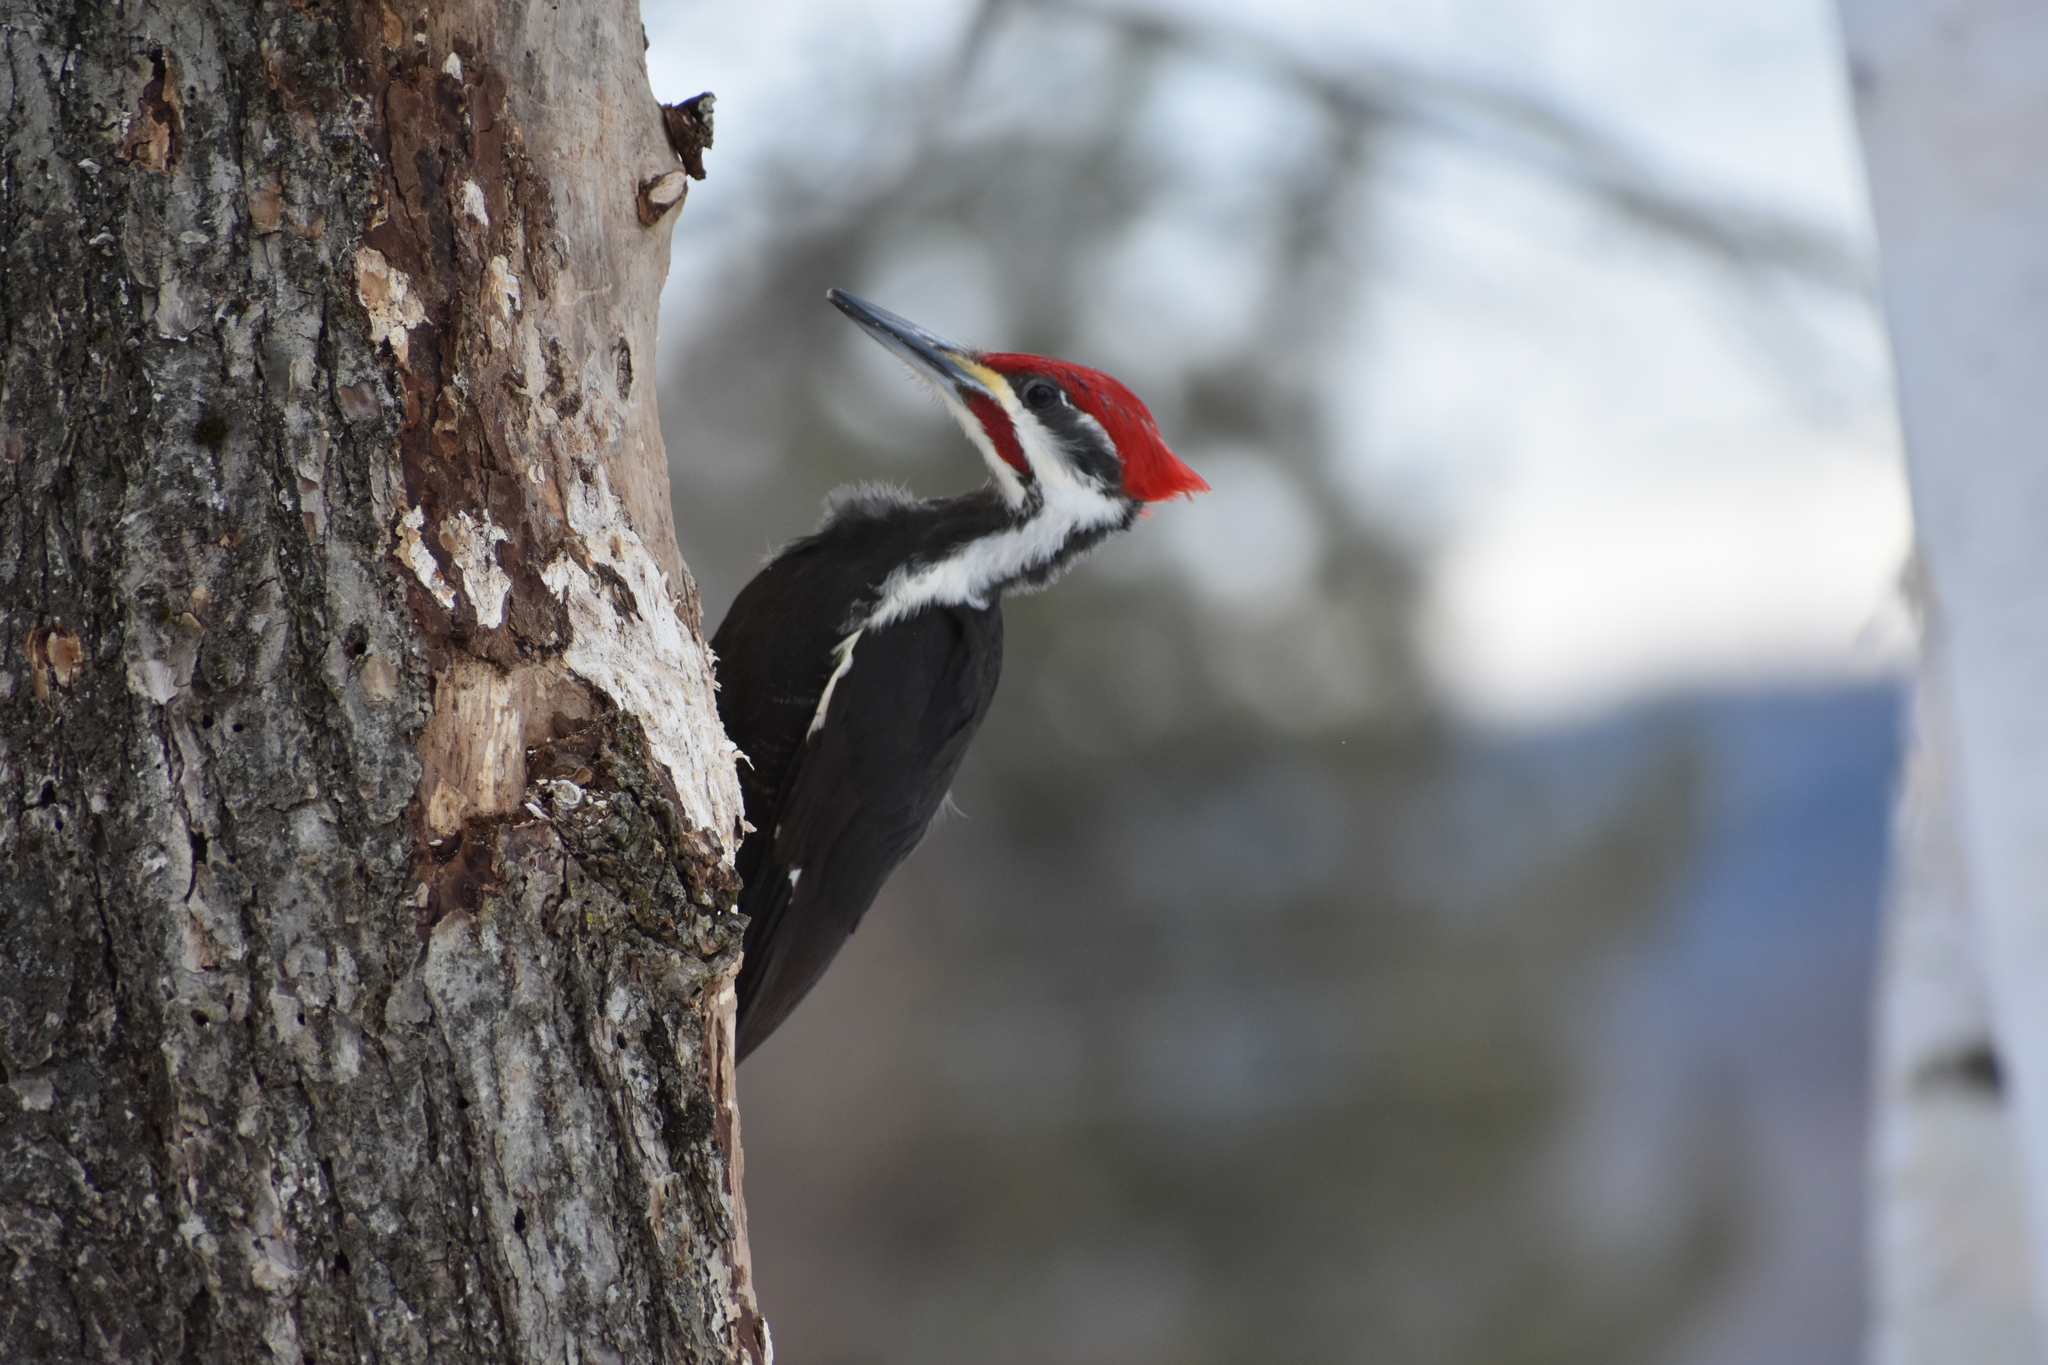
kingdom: Animalia
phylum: Chordata
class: Aves
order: Piciformes
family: Picidae
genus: Dryocopus
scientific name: Dryocopus pileatus
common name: Pileated woodpecker
